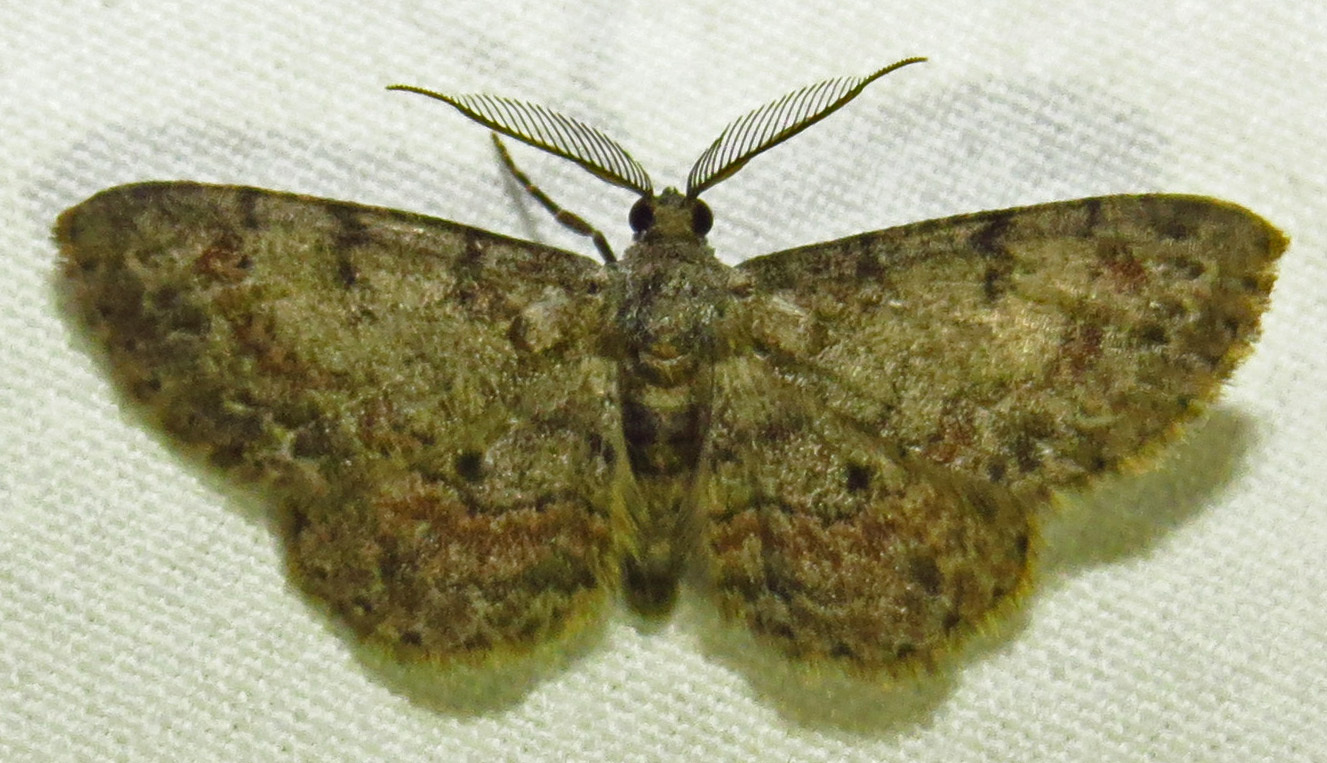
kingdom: Animalia
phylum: Arthropoda
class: Insecta
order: Lepidoptera
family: Geometridae
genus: Glenoides
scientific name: Glenoides texanaria
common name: Texas gray
